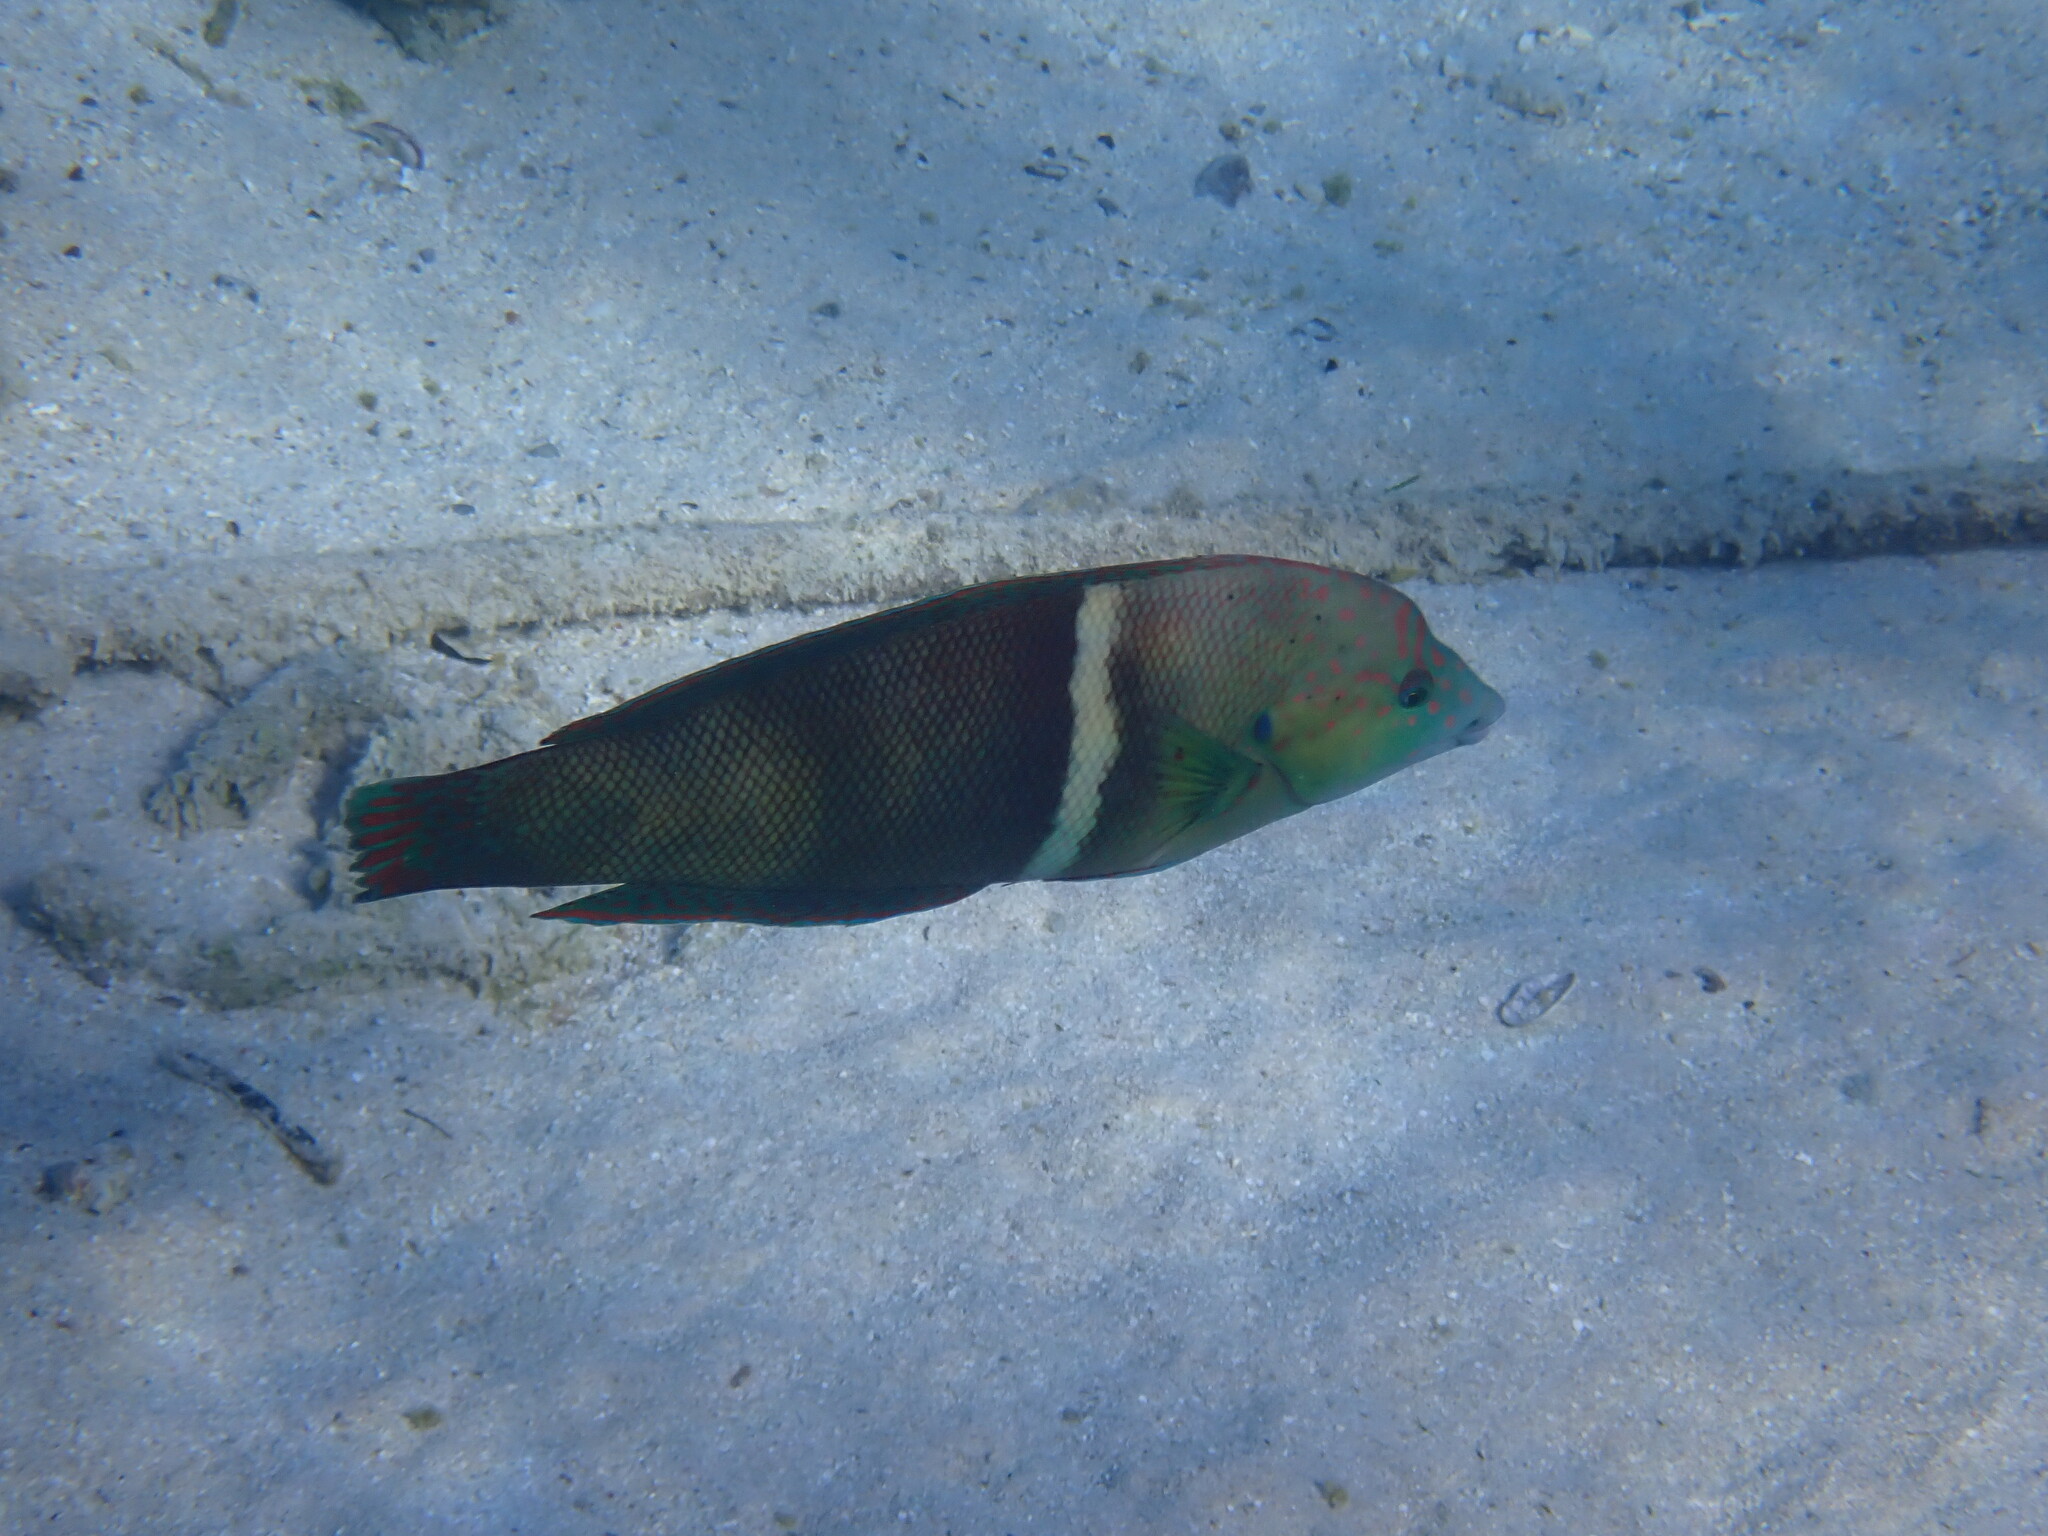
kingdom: Animalia
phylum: Chordata
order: Perciformes
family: Labridae
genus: Coris
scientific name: Coris aygula
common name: Clown coris
